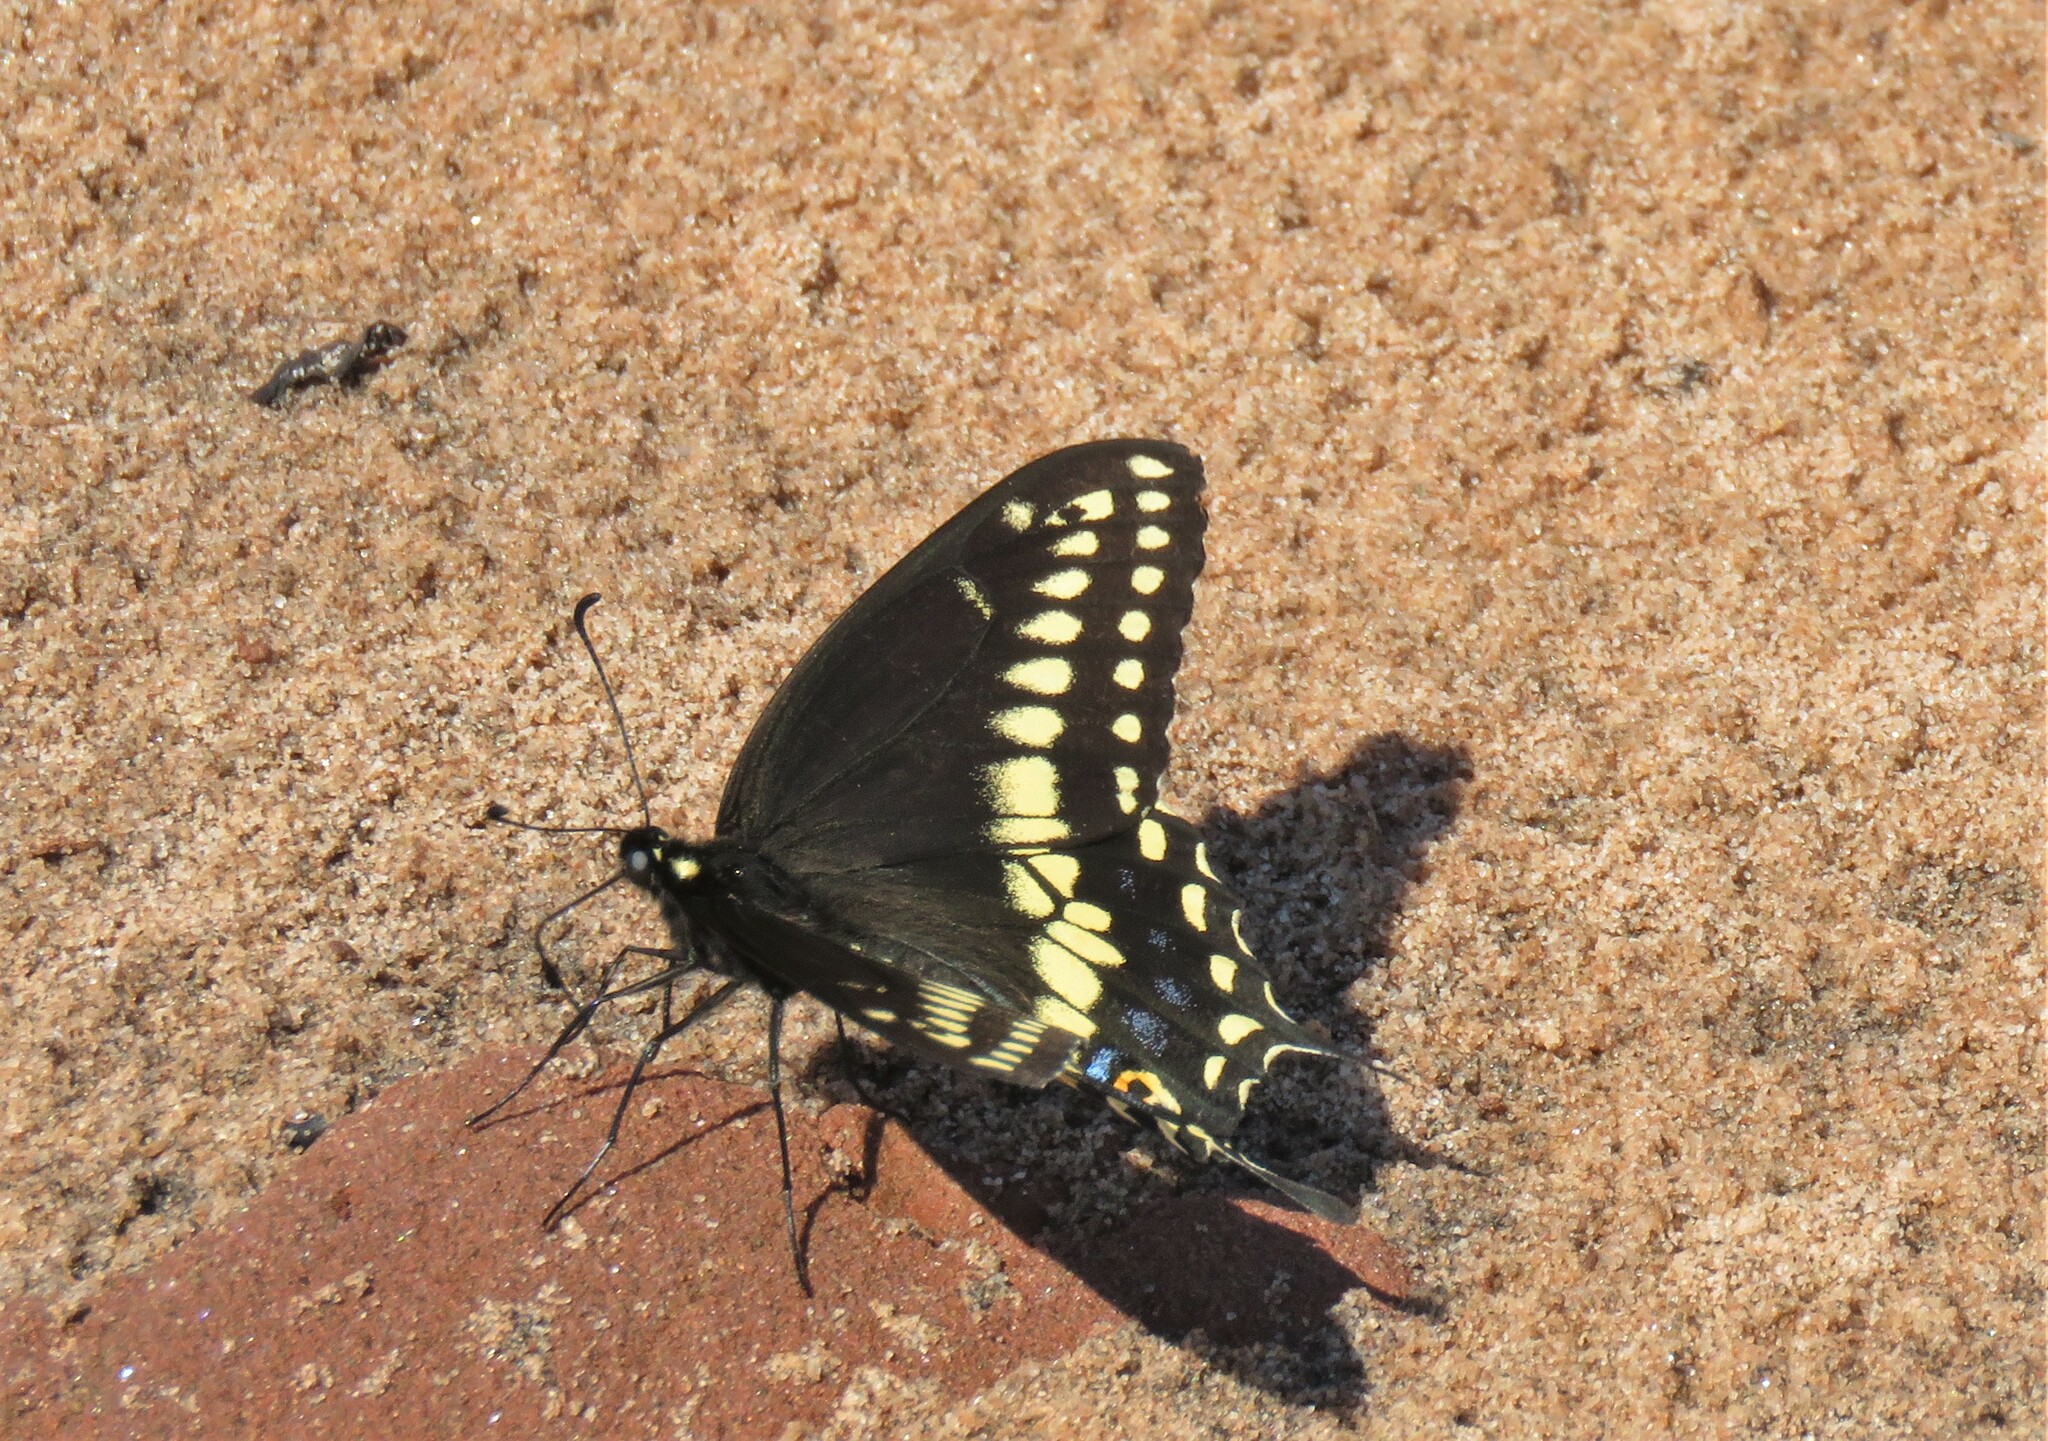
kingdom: Animalia
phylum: Arthropoda
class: Insecta
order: Lepidoptera
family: Papilionidae
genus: Papilio
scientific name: Papilio polyxenes
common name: Black swallowtail
